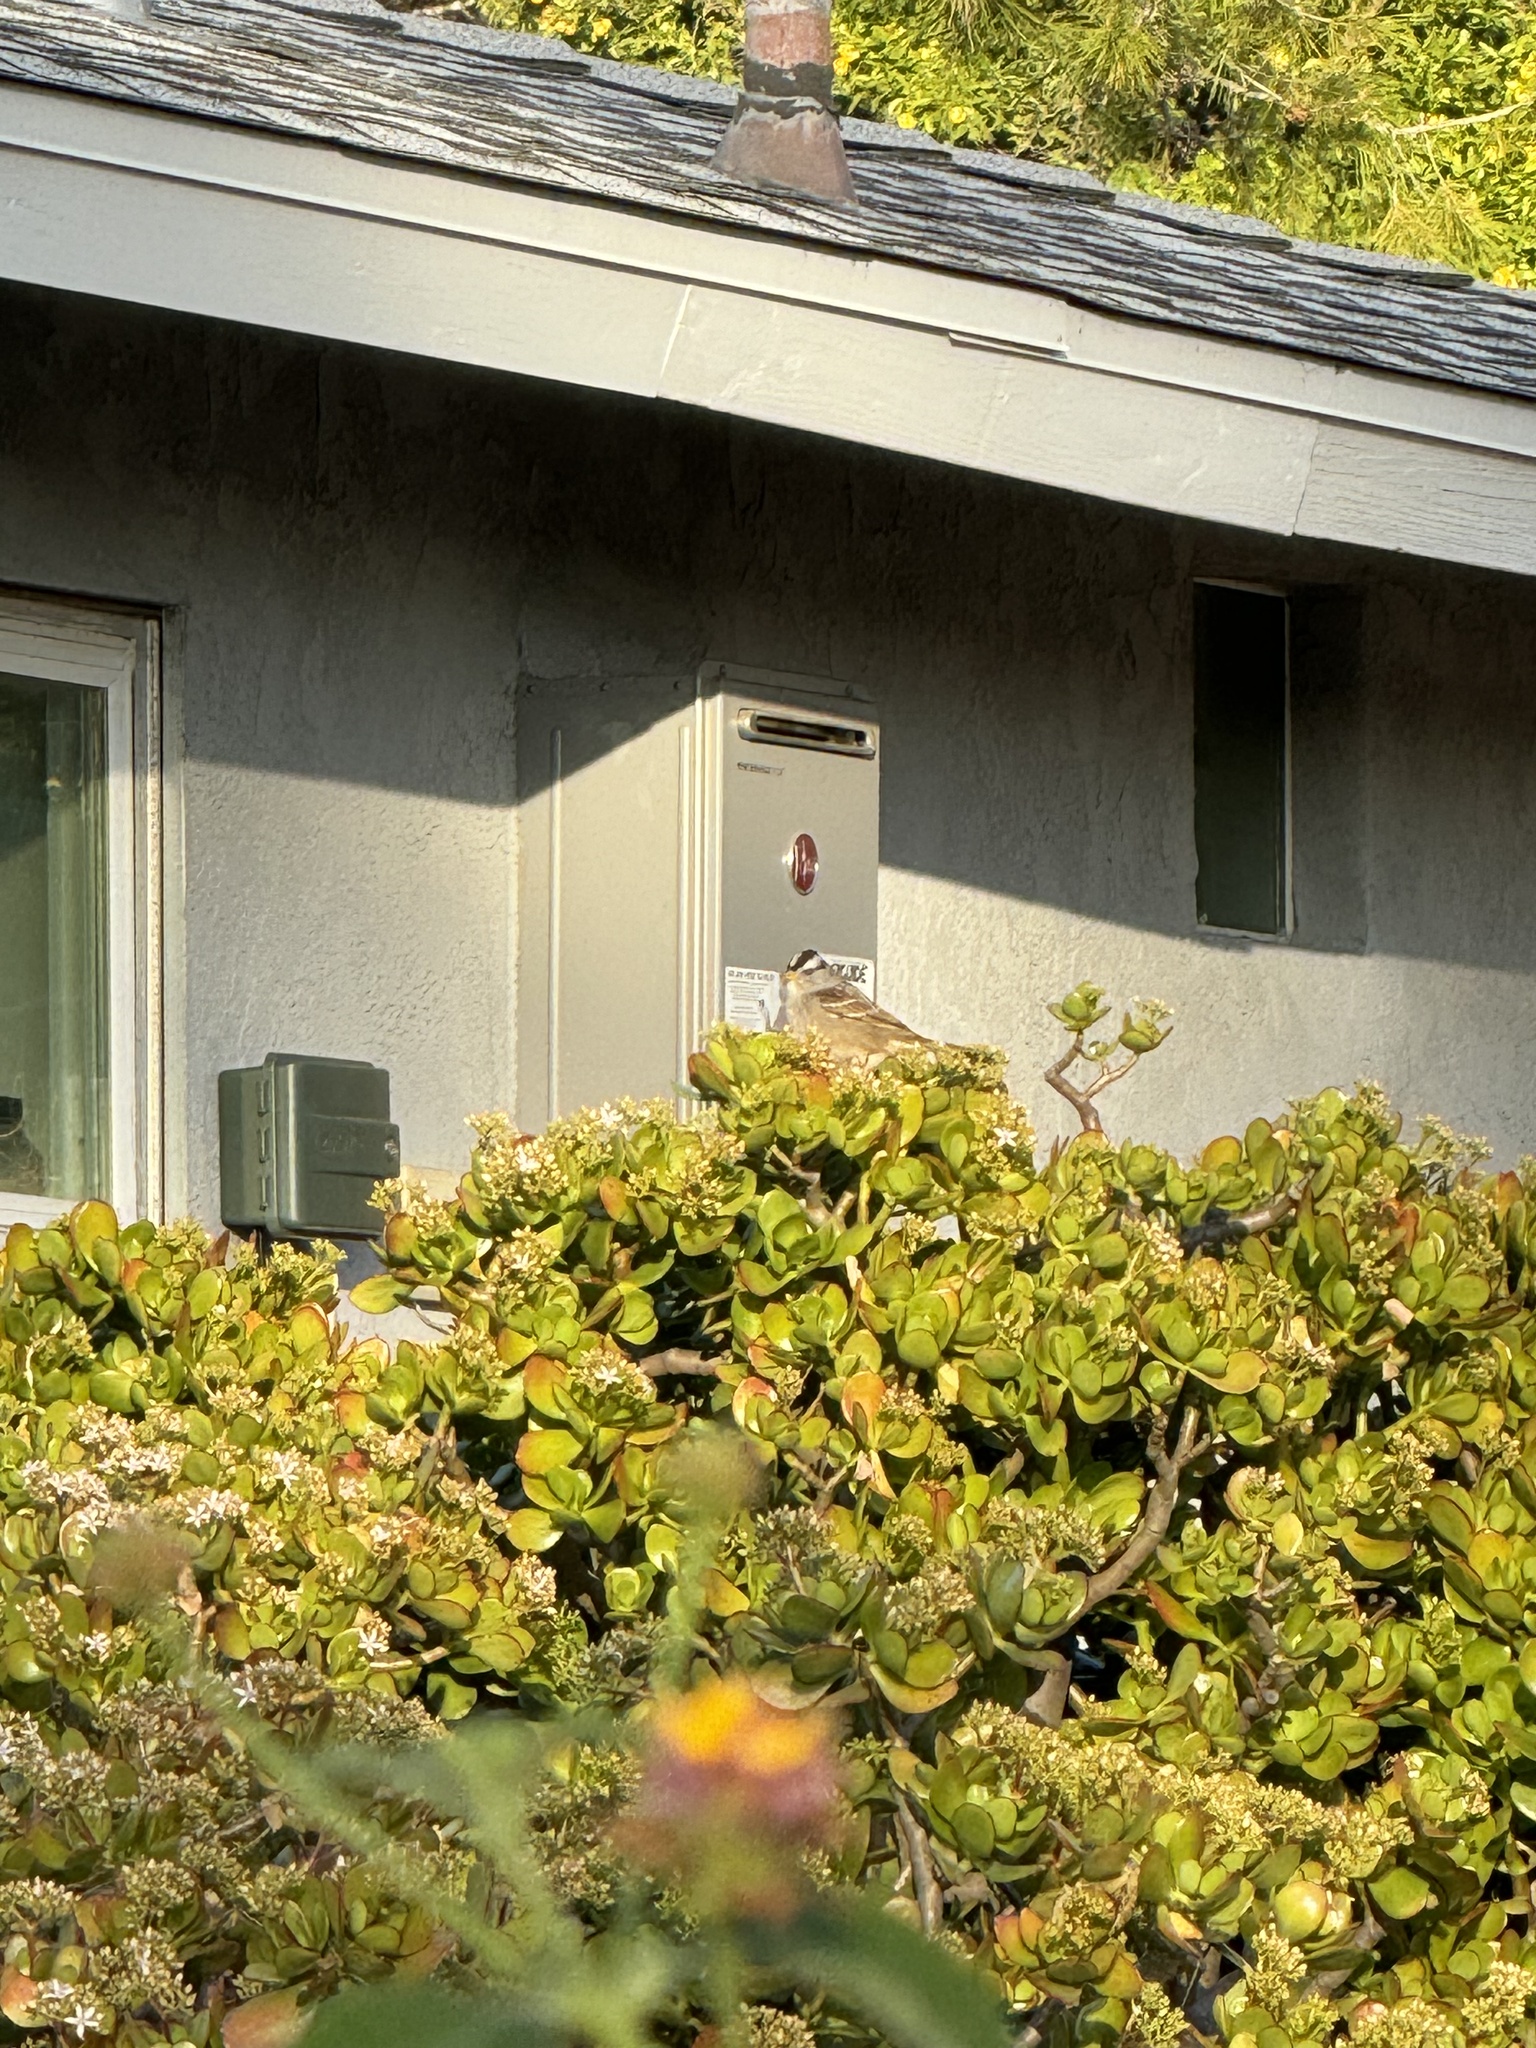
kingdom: Animalia
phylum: Chordata
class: Aves
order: Passeriformes
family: Passerellidae
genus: Zonotrichia
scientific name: Zonotrichia leucophrys
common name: White-crowned sparrow
